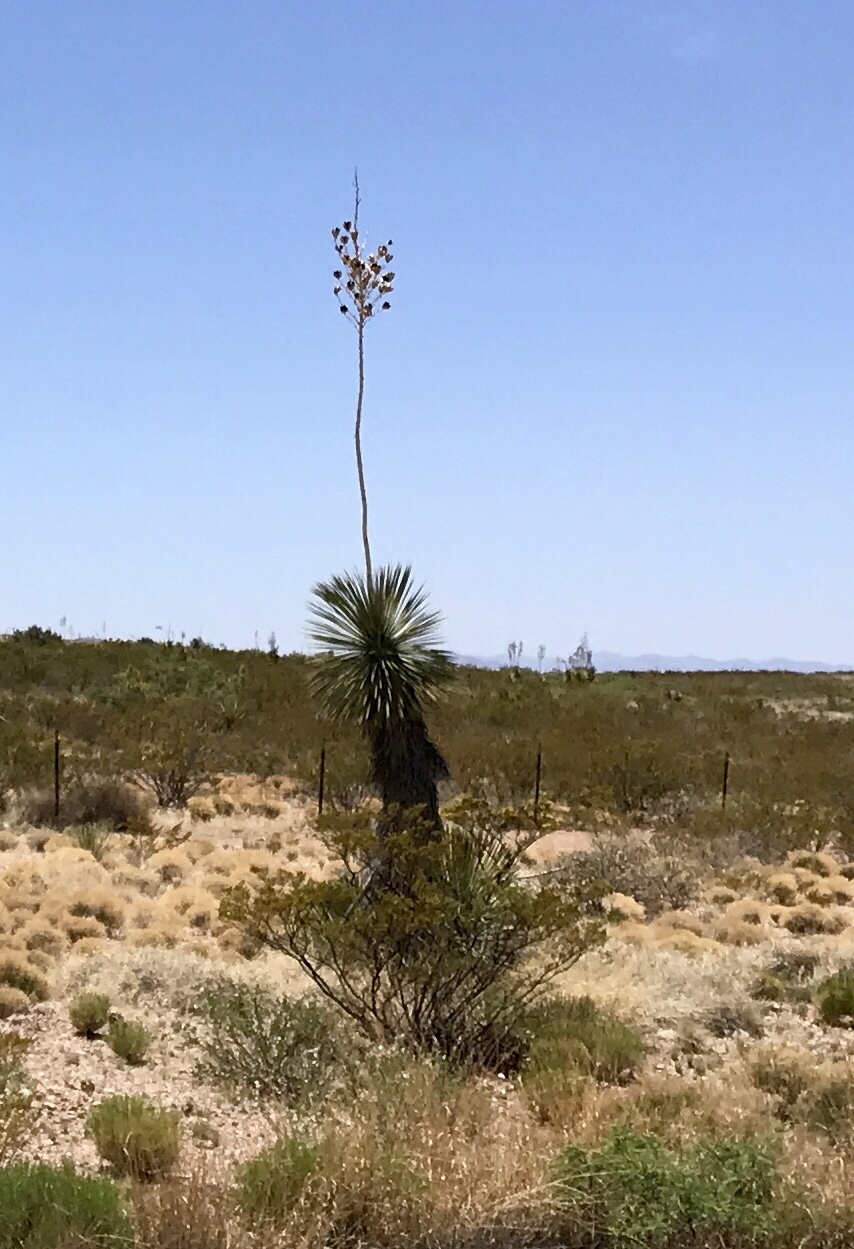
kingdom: Plantae
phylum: Tracheophyta
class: Liliopsida
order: Asparagales
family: Asparagaceae
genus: Yucca
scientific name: Yucca elata
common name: Palmella
